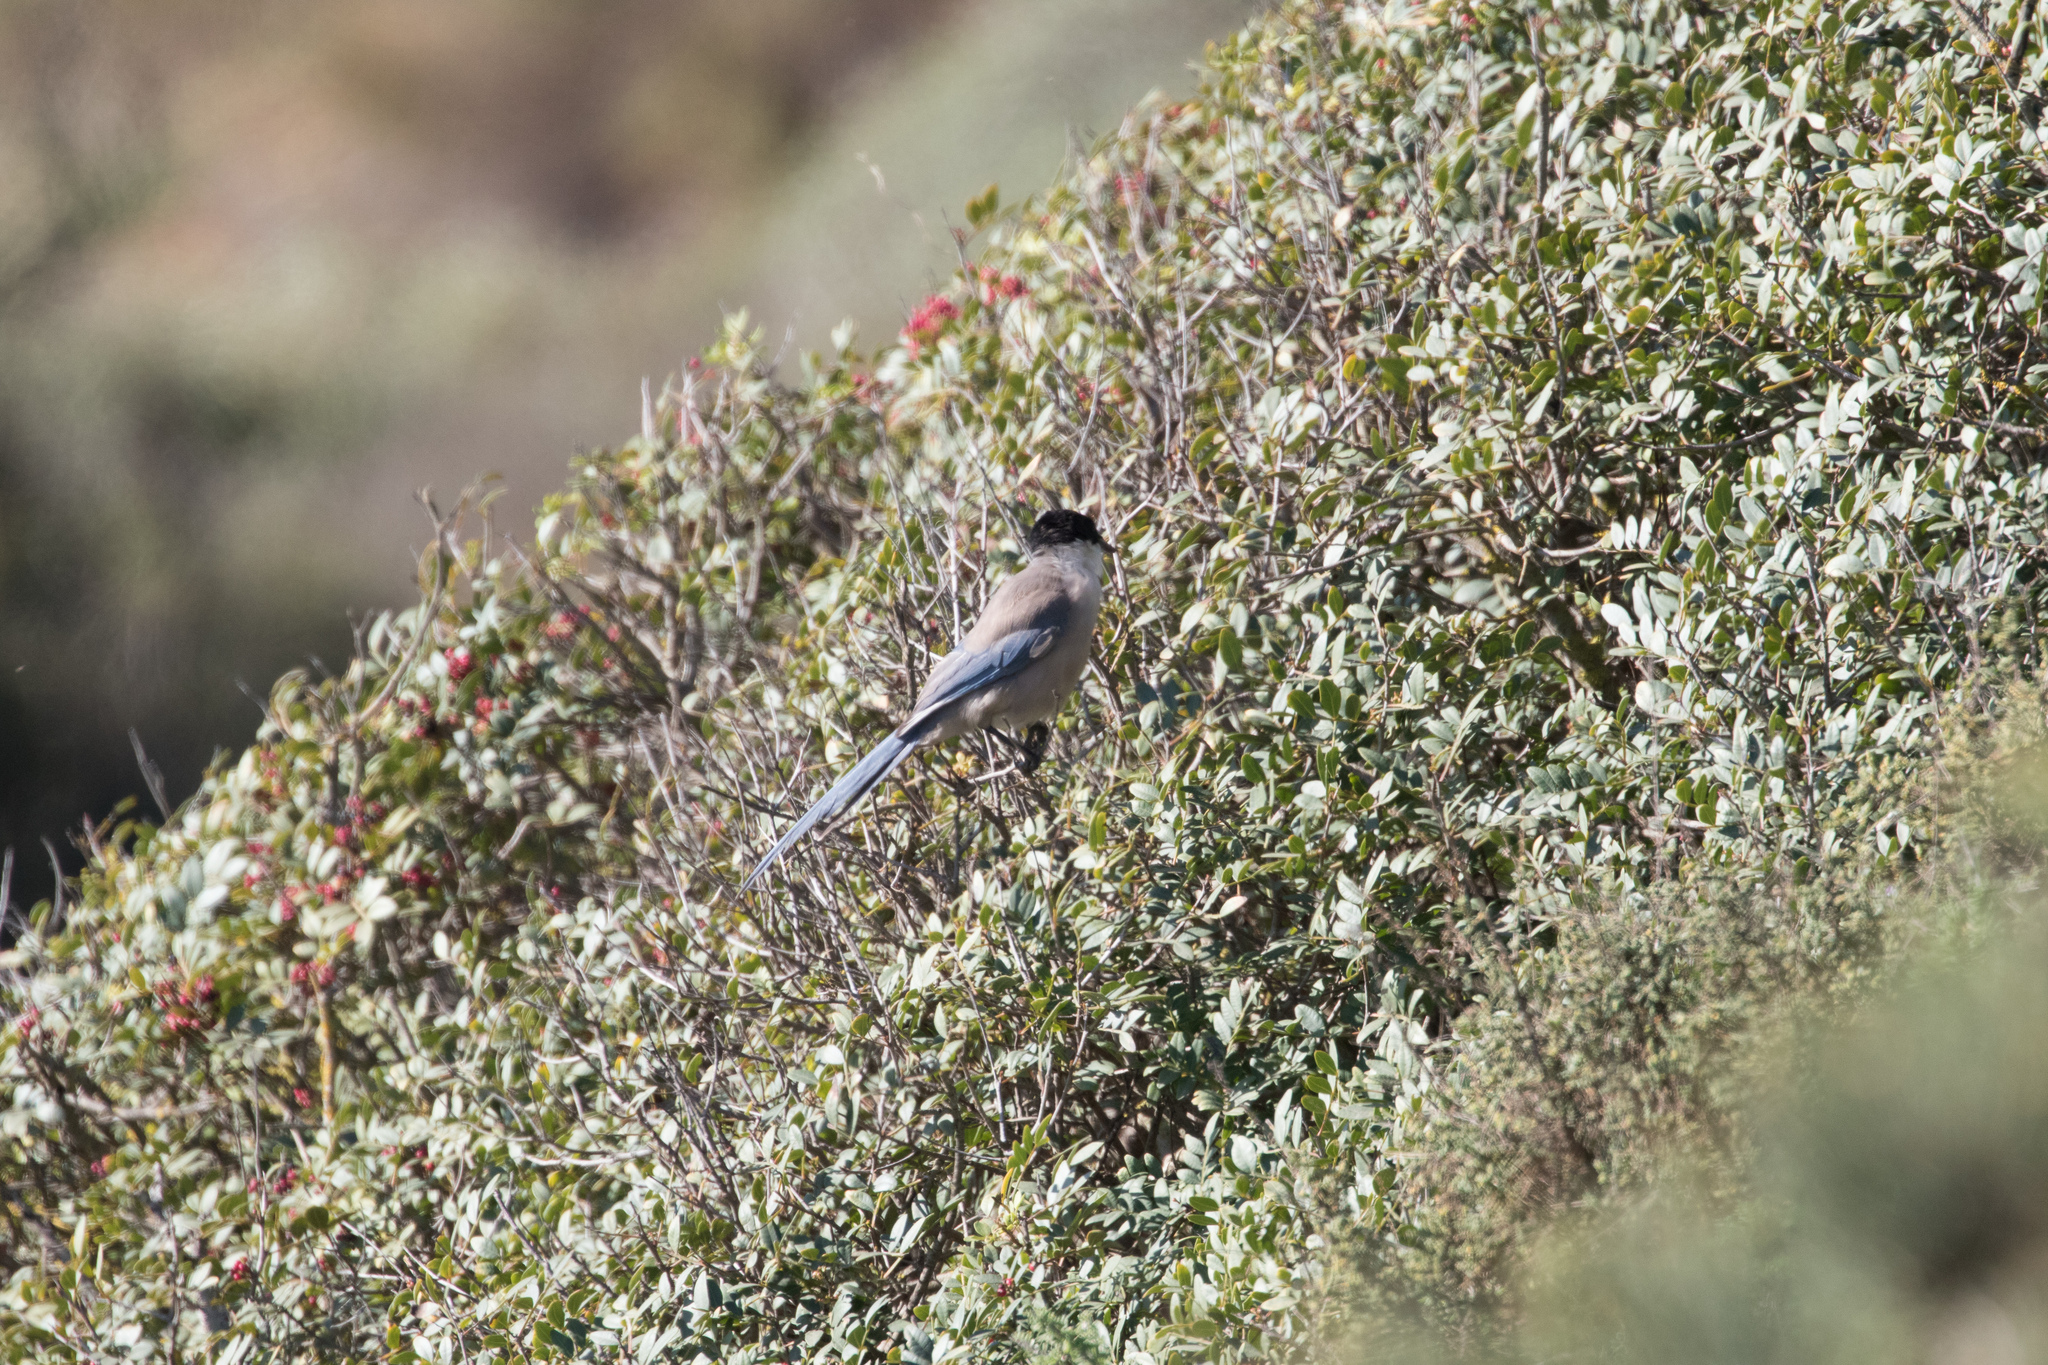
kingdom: Animalia
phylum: Chordata
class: Aves
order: Passeriformes
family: Corvidae
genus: Cyanopica
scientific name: Cyanopica cooki
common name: Iberian magpie
